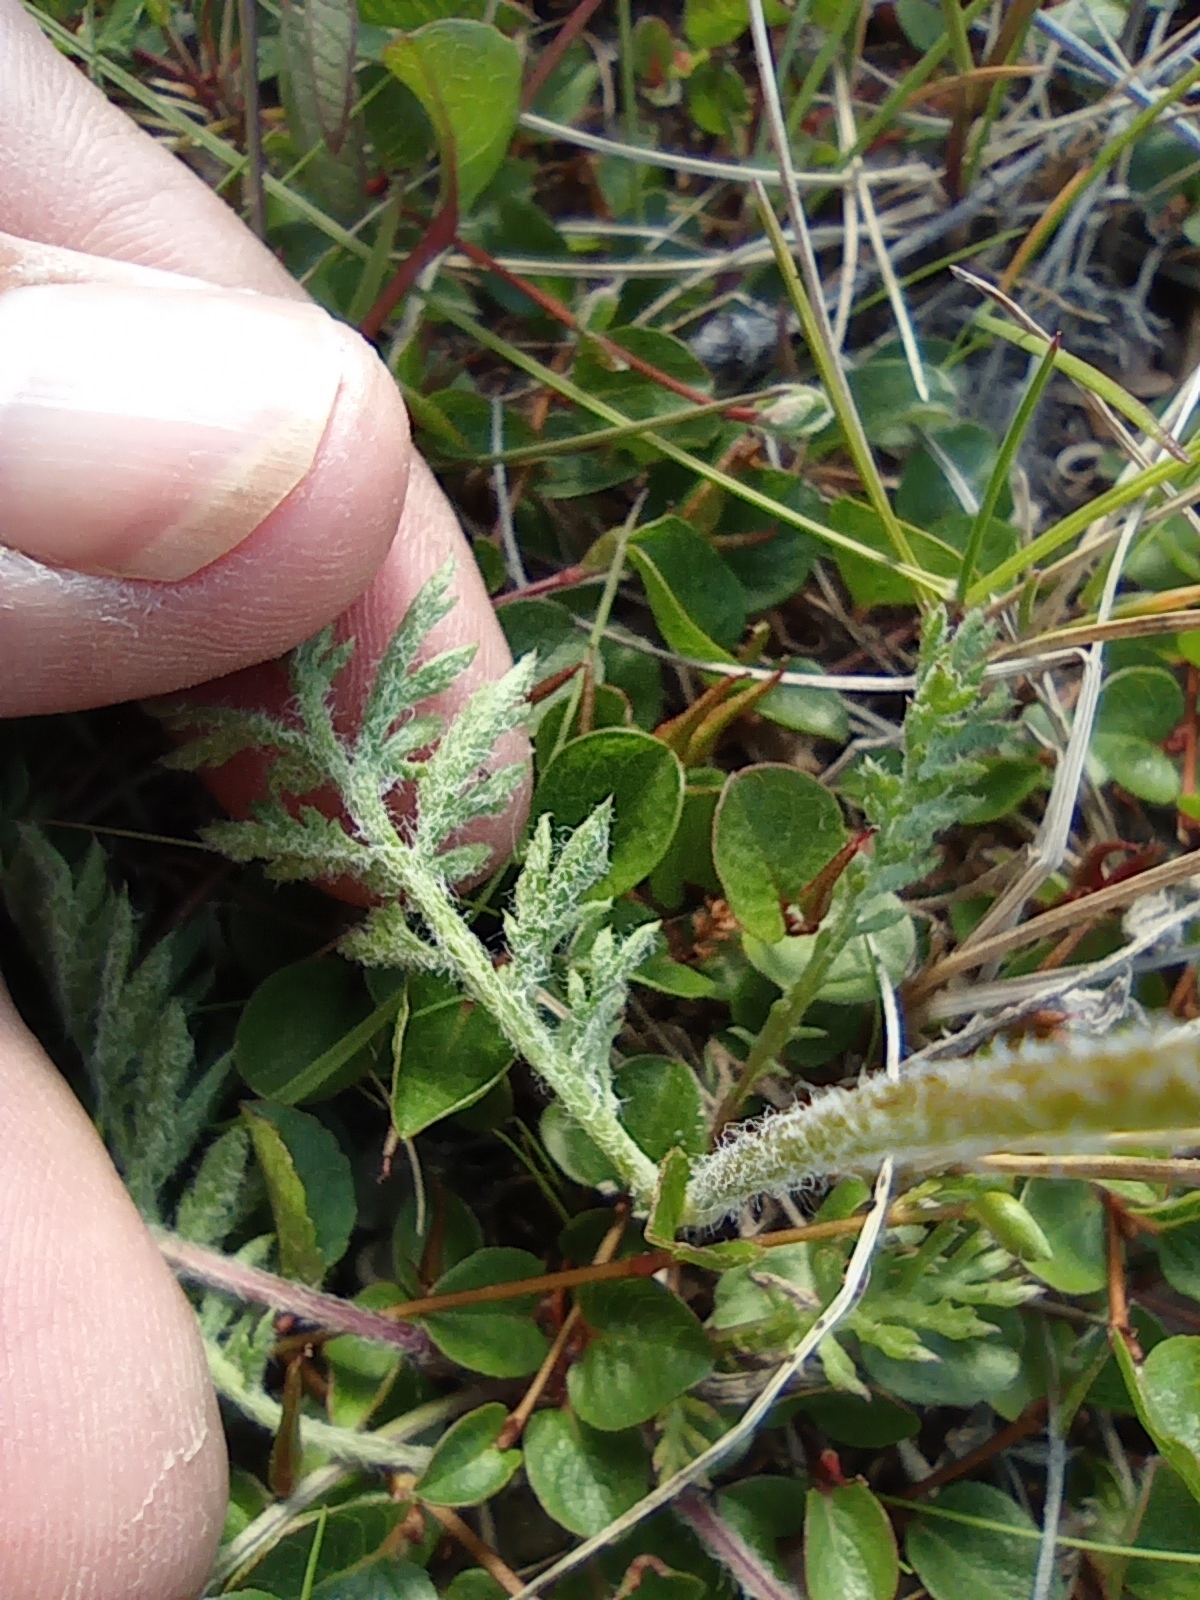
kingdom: Plantae
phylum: Tracheophyta
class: Magnoliopsida
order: Asterales
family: Asteraceae
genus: Tanacetum
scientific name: Tanacetum bipinnatum
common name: Dwarf tansy
